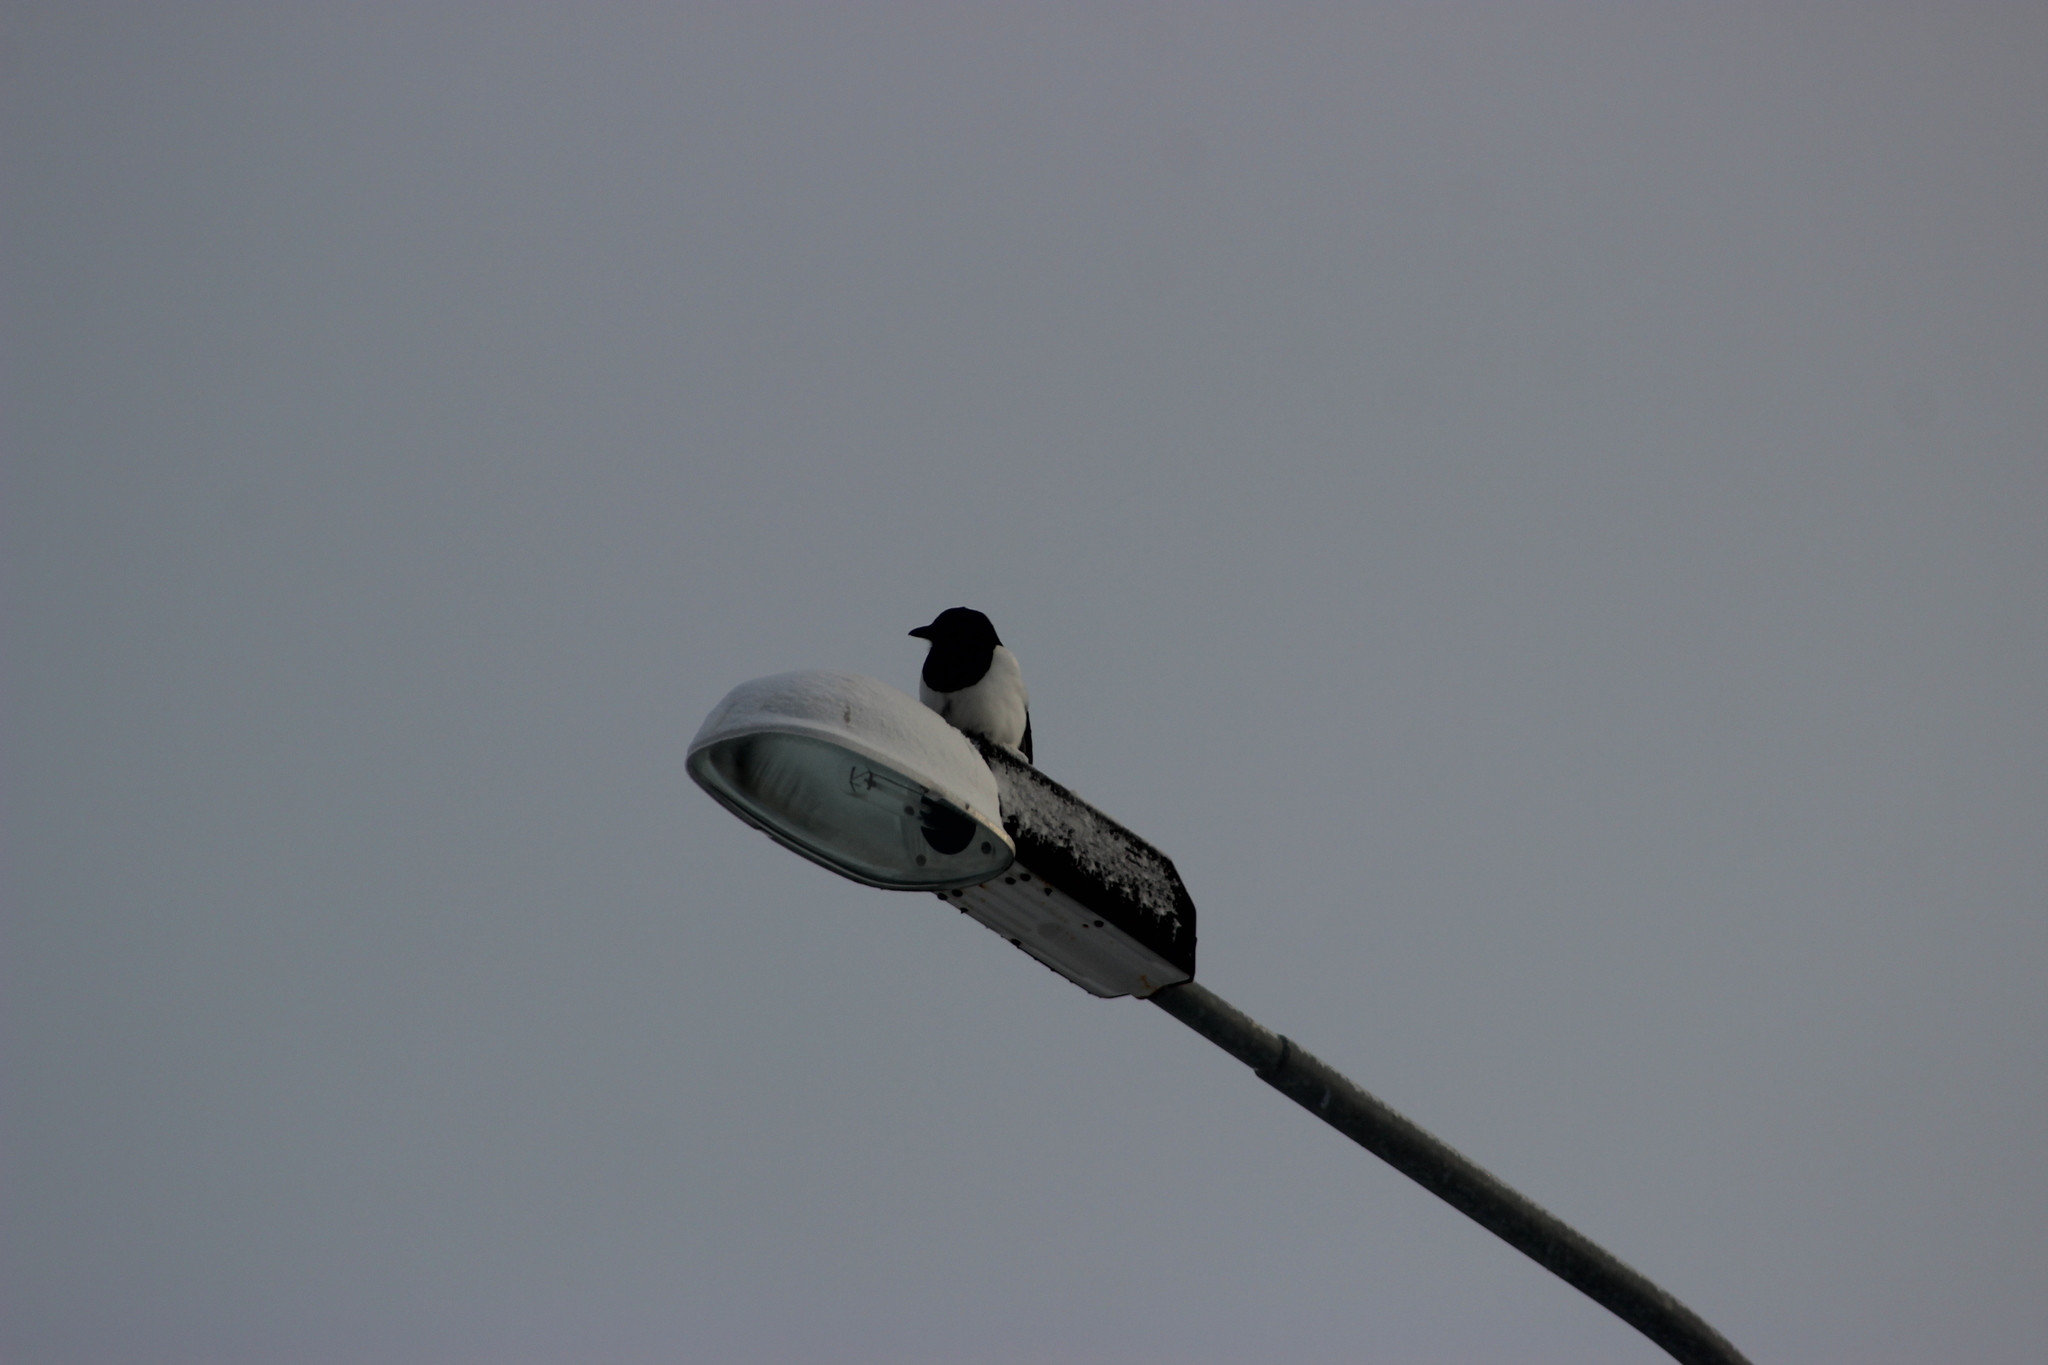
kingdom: Animalia
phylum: Chordata
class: Aves
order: Passeriformes
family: Corvidae
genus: Pica
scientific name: Pica pica
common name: Eurasian magpie
